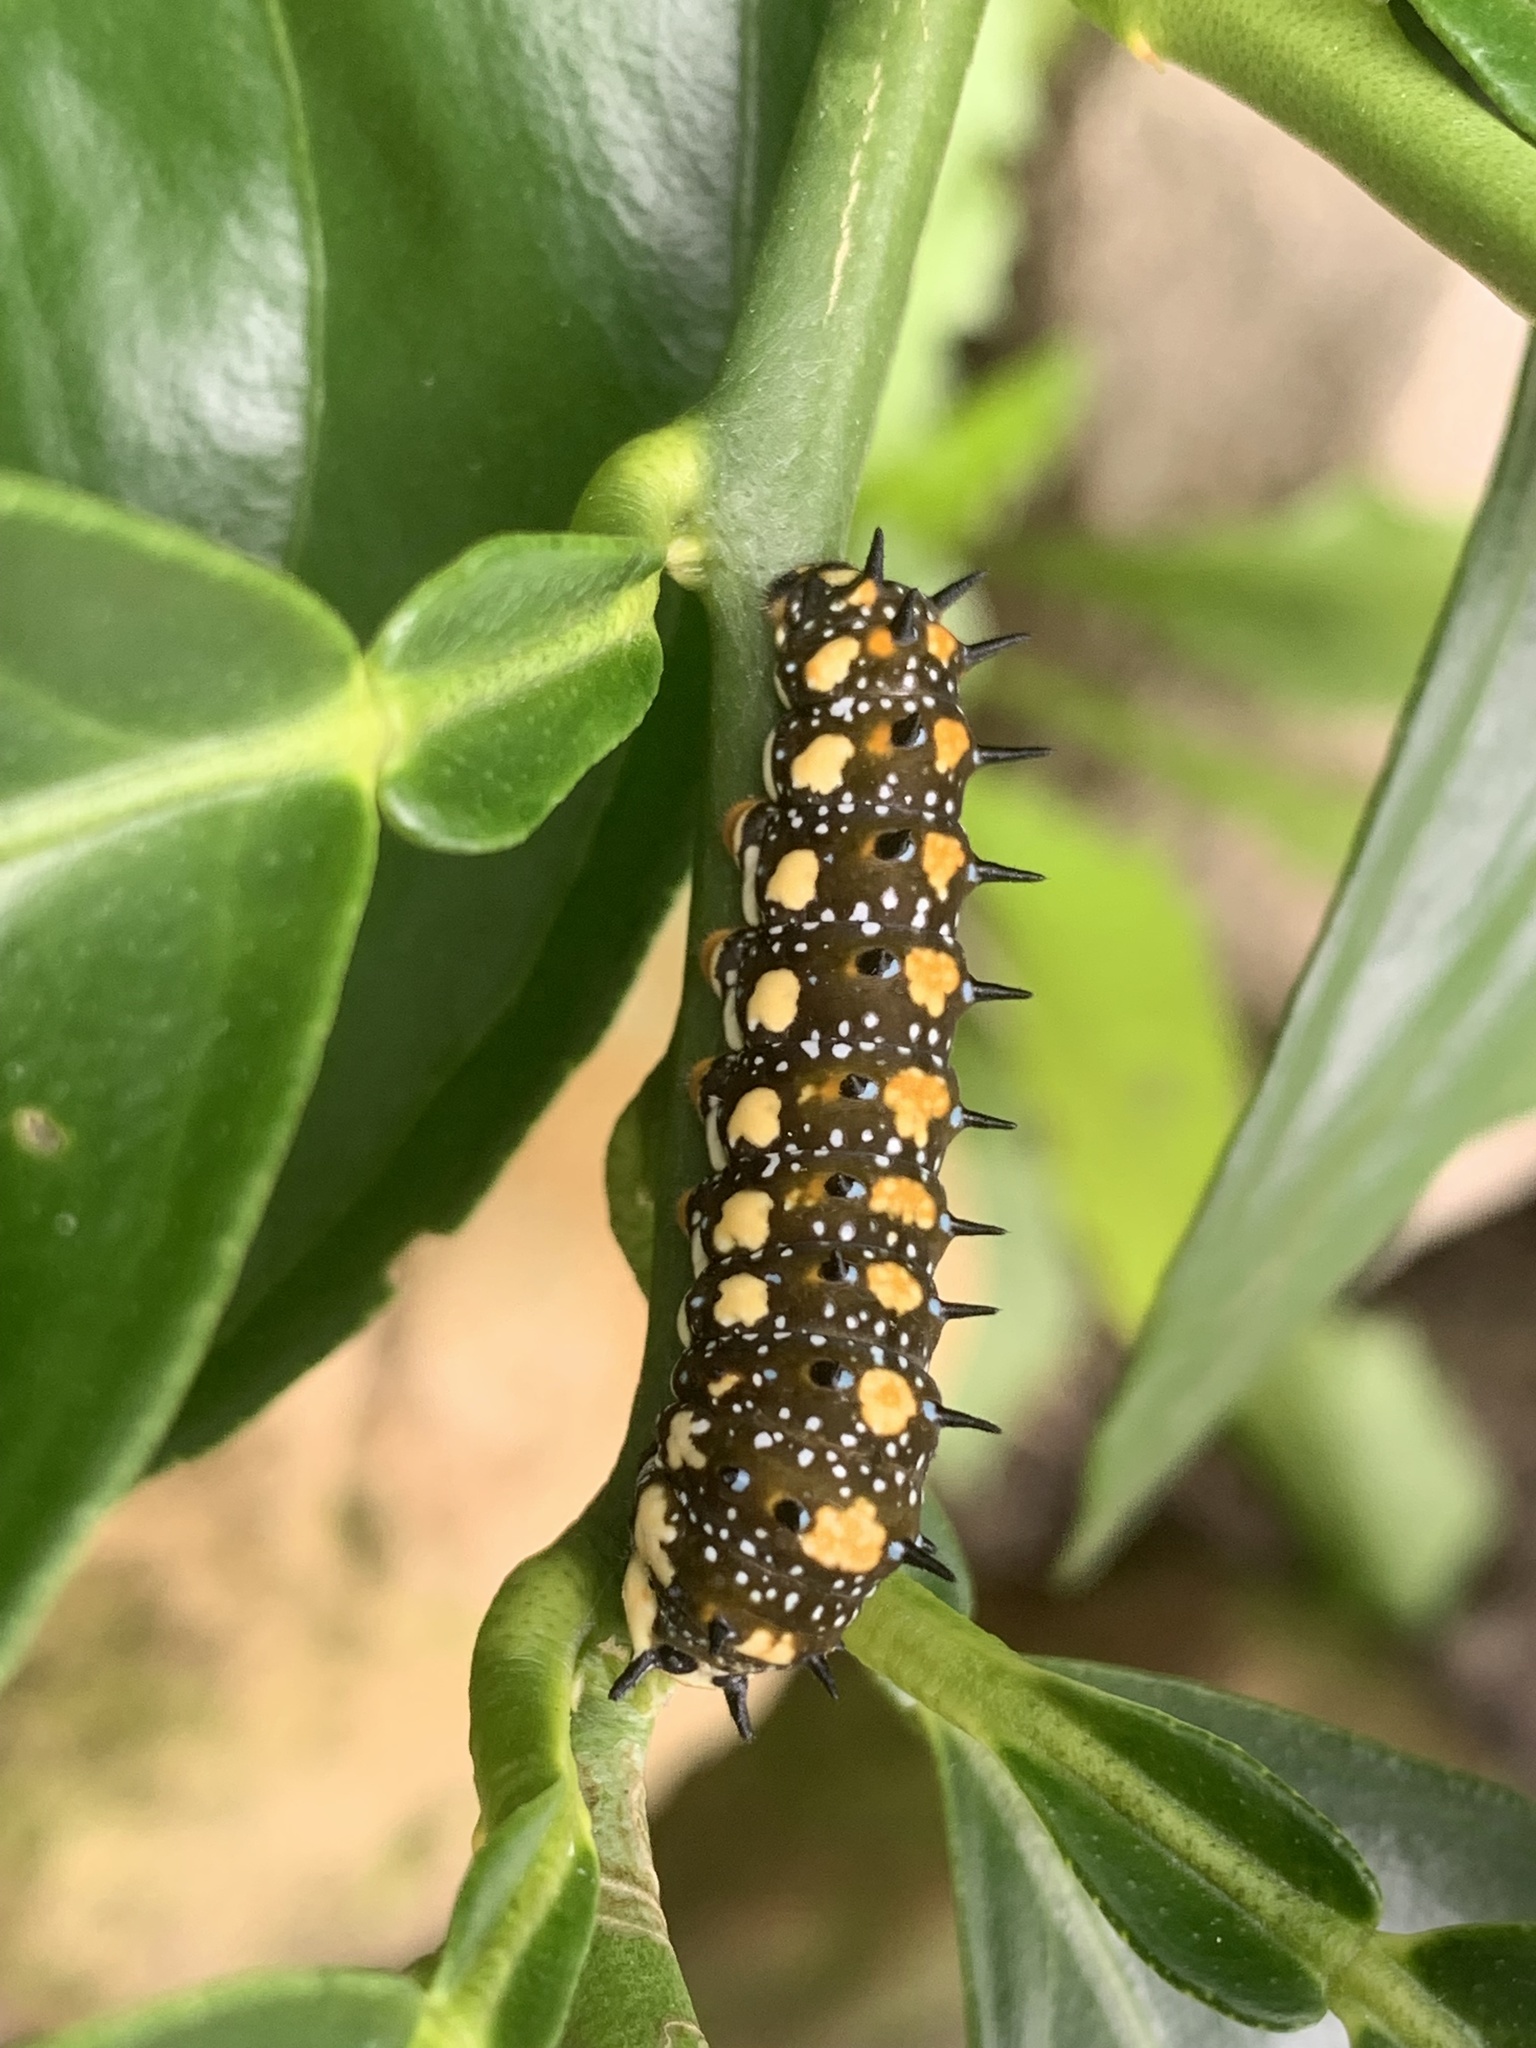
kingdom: Animalia
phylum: Arthropoda
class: Insecta
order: Lepidoptera
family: Papilionidae
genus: Papilio
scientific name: Papilio anactus
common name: Dingy swallowtail
